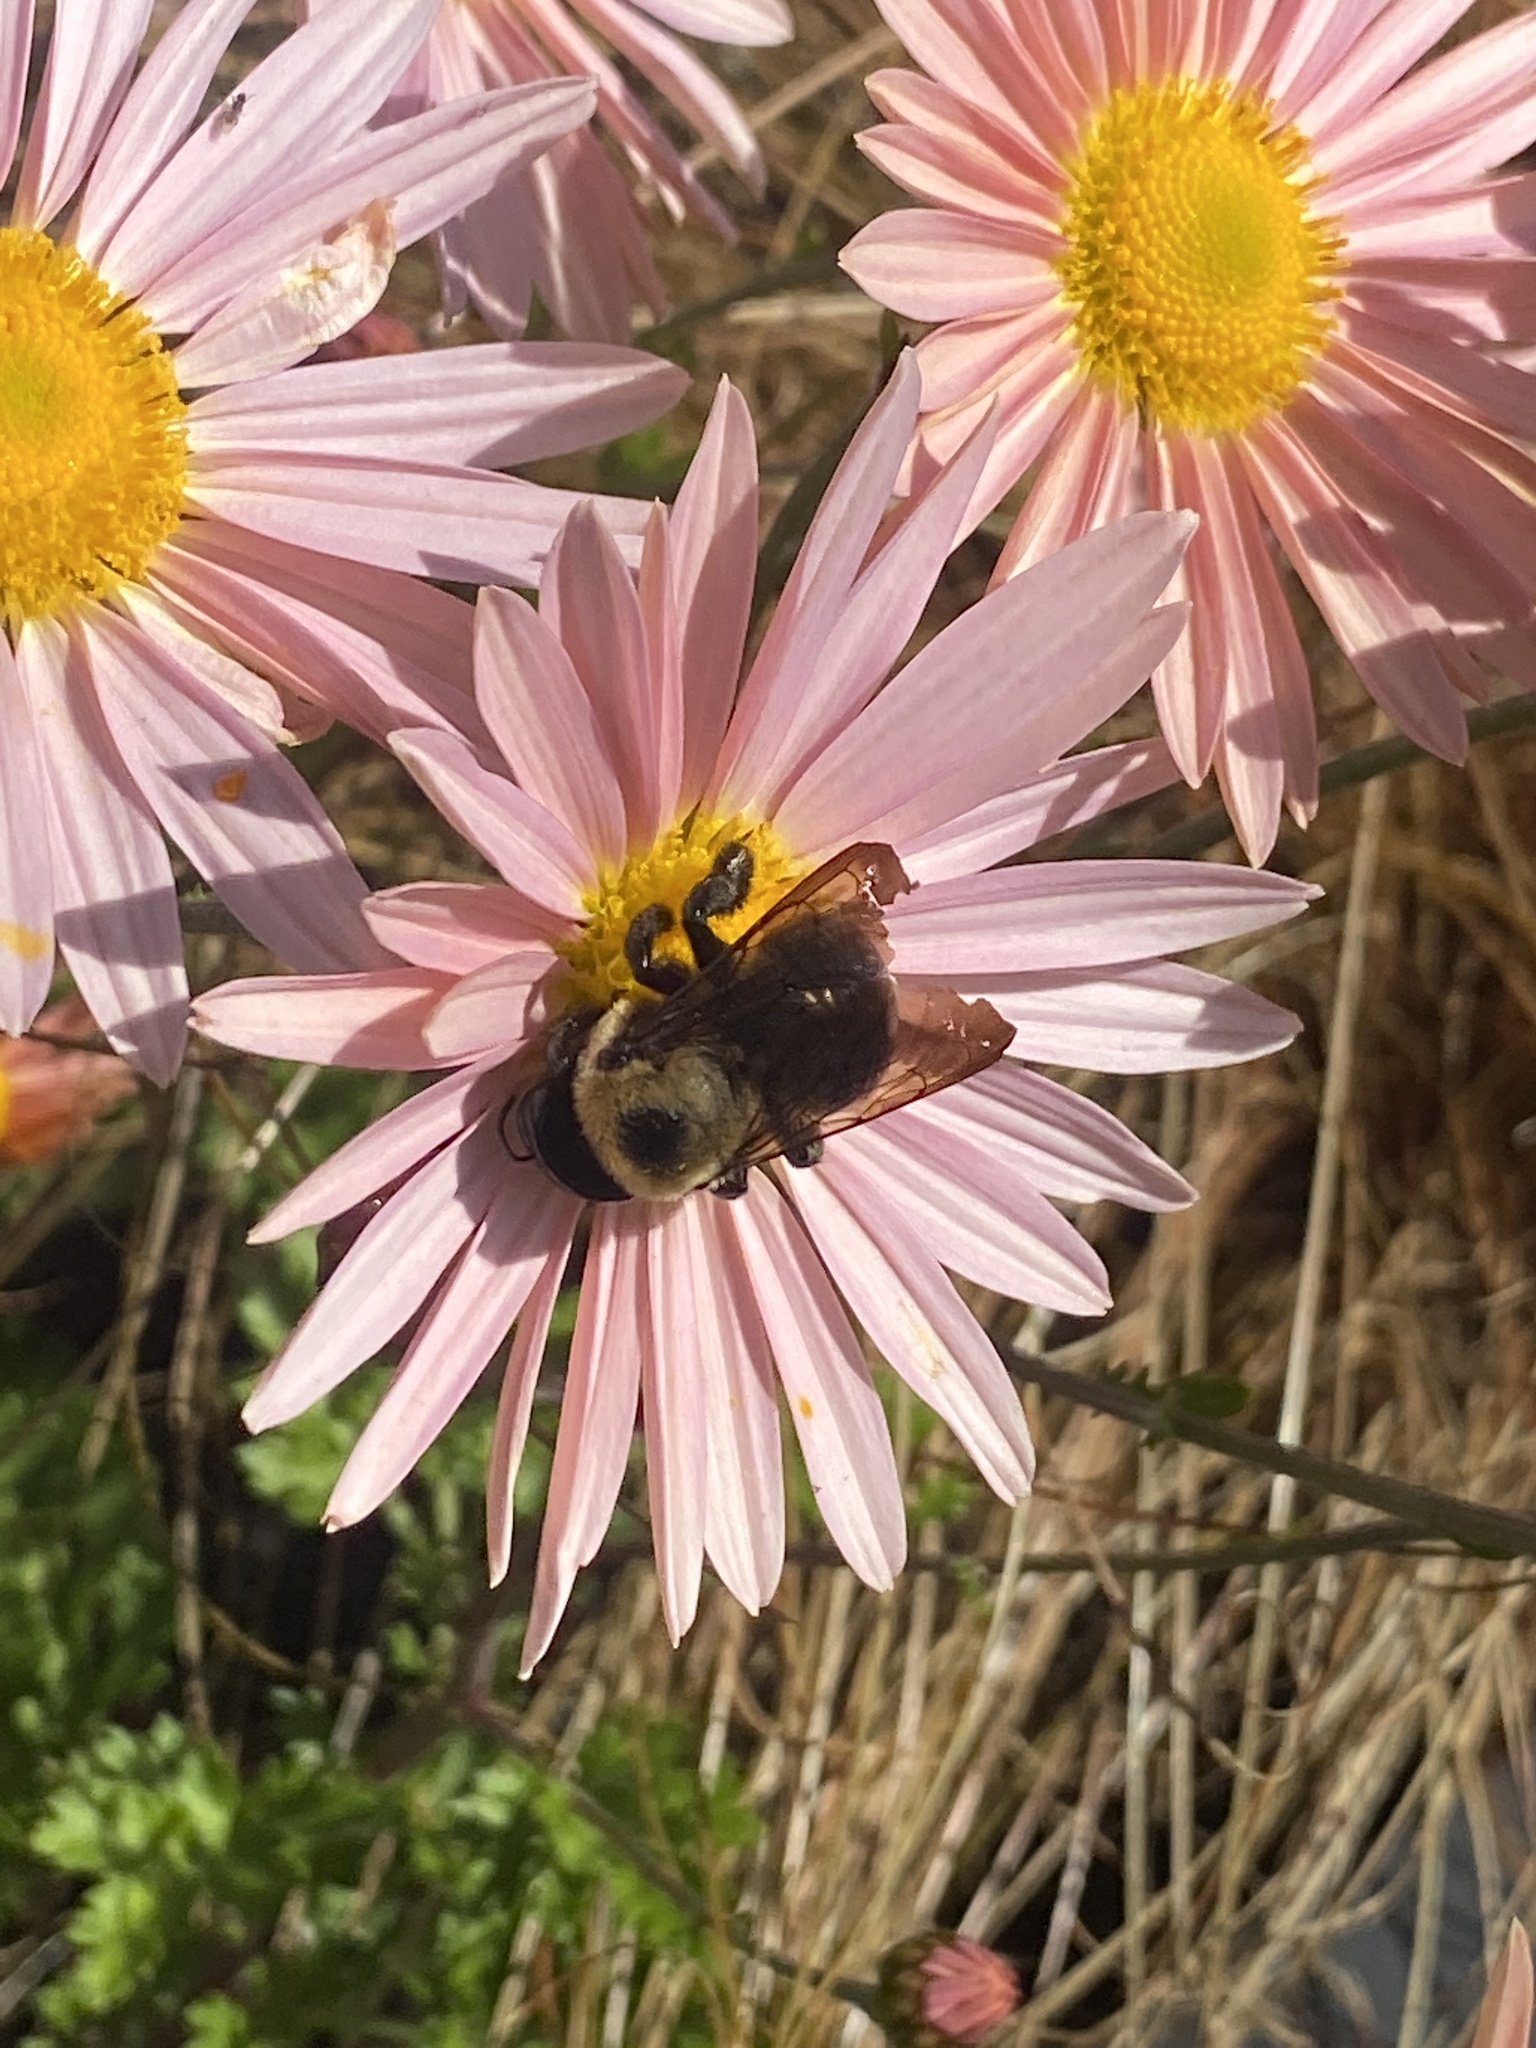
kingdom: Animalia
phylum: Arthropoda
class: Insecta
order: Hymenoptera
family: Apidae
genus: Xylocopa
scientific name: Xylocopa virginica
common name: Carpenter bee
